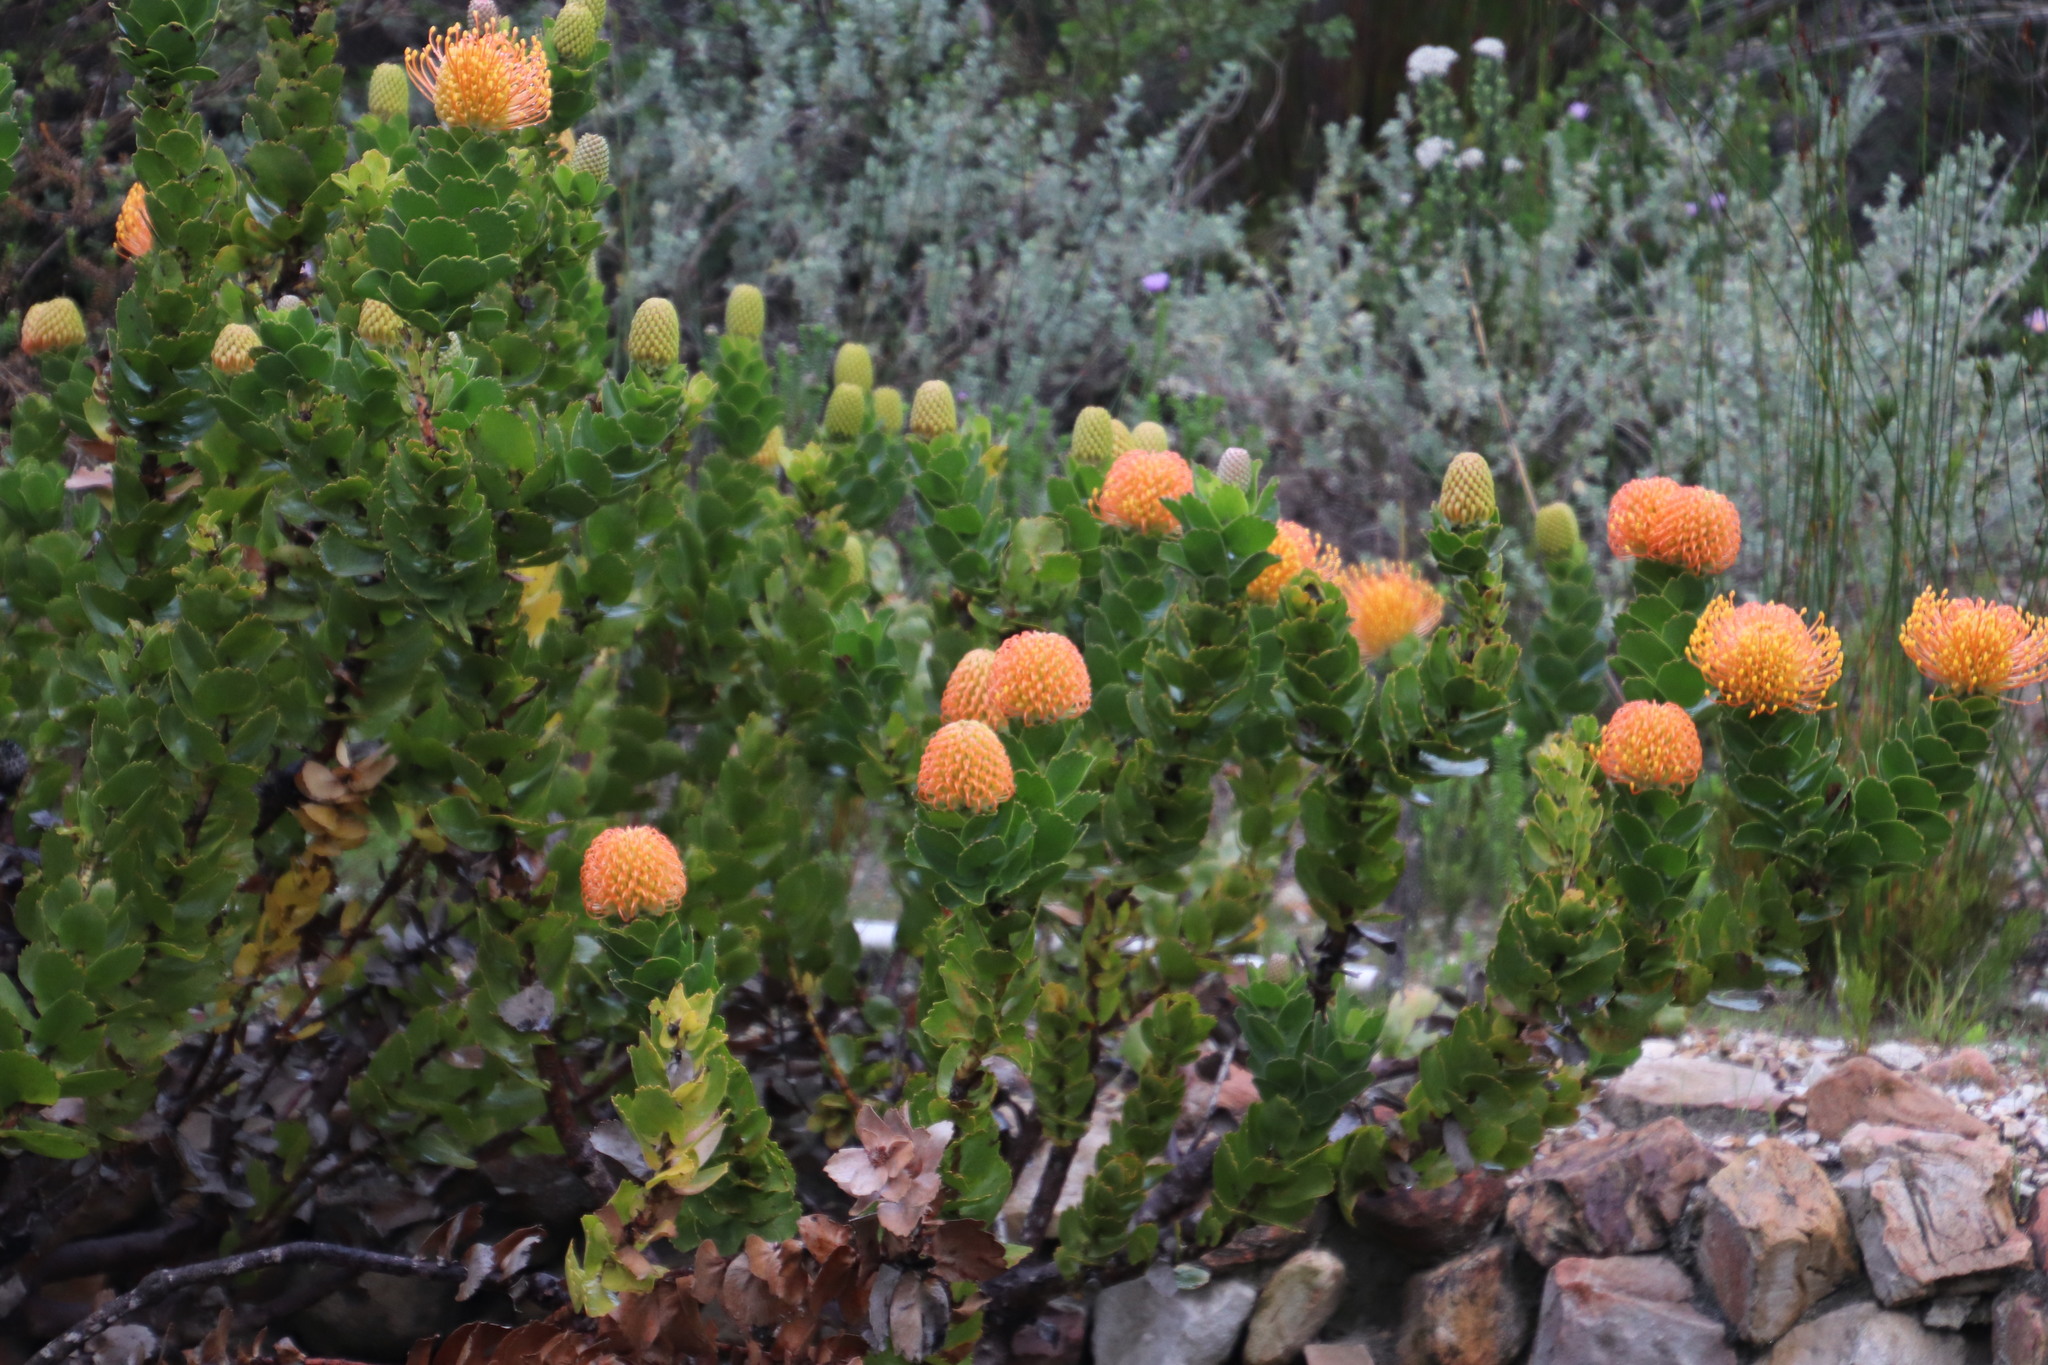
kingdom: Plantae
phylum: Tracheophyta
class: Magnoliopsida
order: Proteales
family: Proteaceae
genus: Leucospermum
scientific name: Leucospermum patersonii
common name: False tree pincushion
